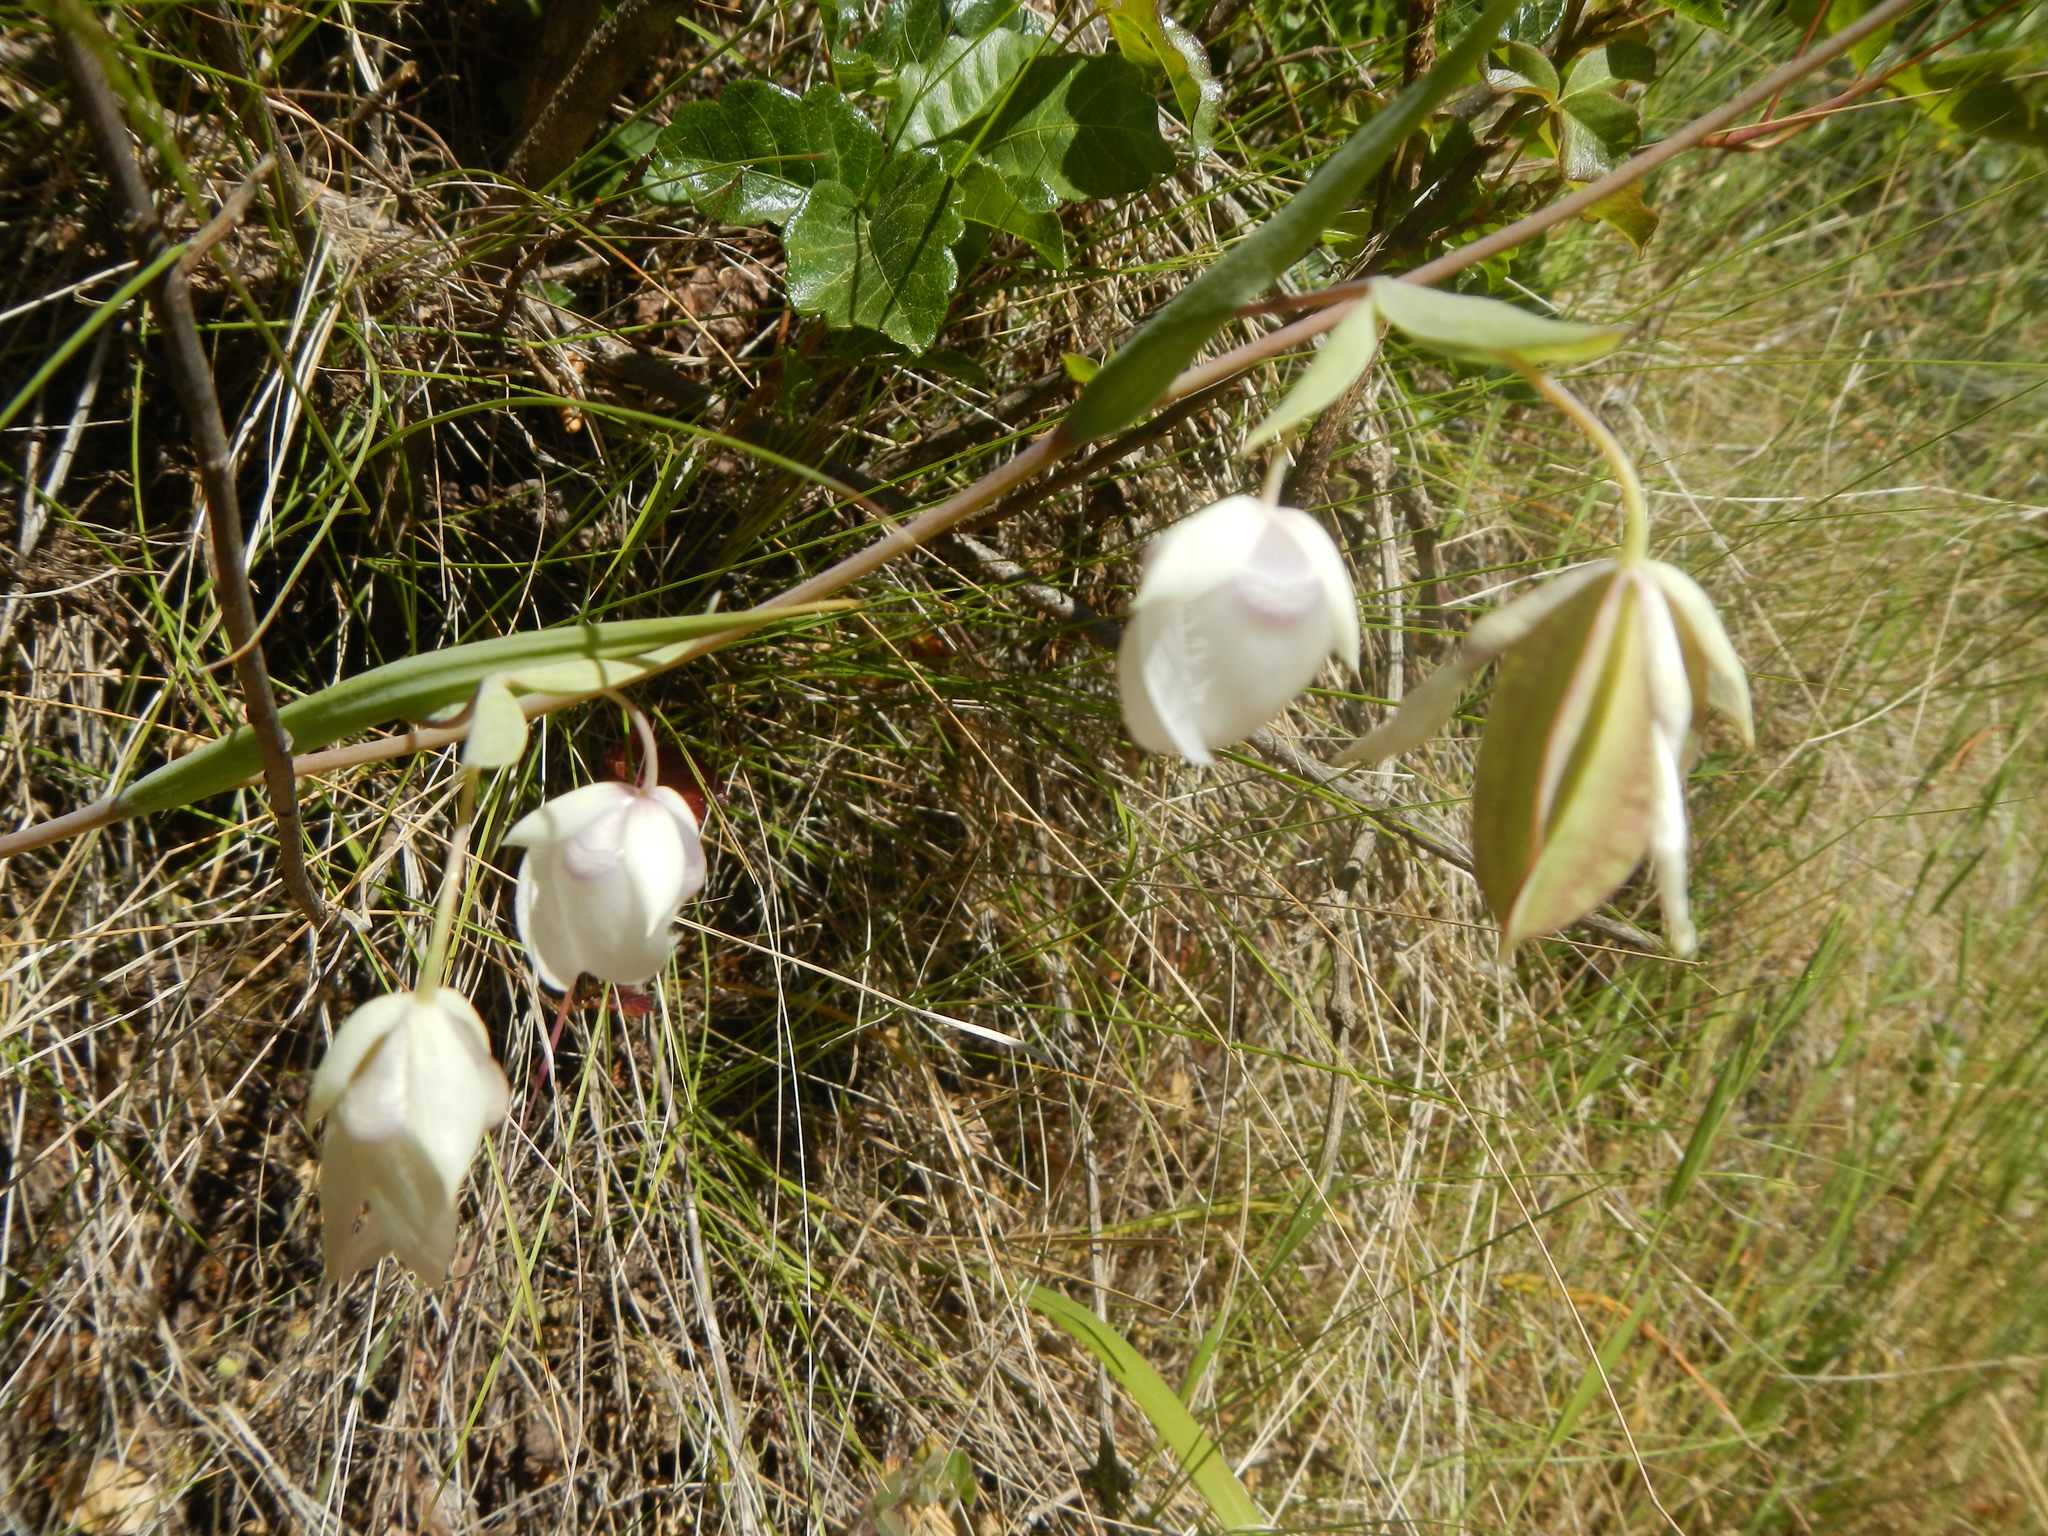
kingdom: Plantae
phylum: Tracheophyta
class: Liliopsida
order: Liliales
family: Liliaceae
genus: Calochortus
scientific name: Calochortus albus
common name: Fairy-lantern
